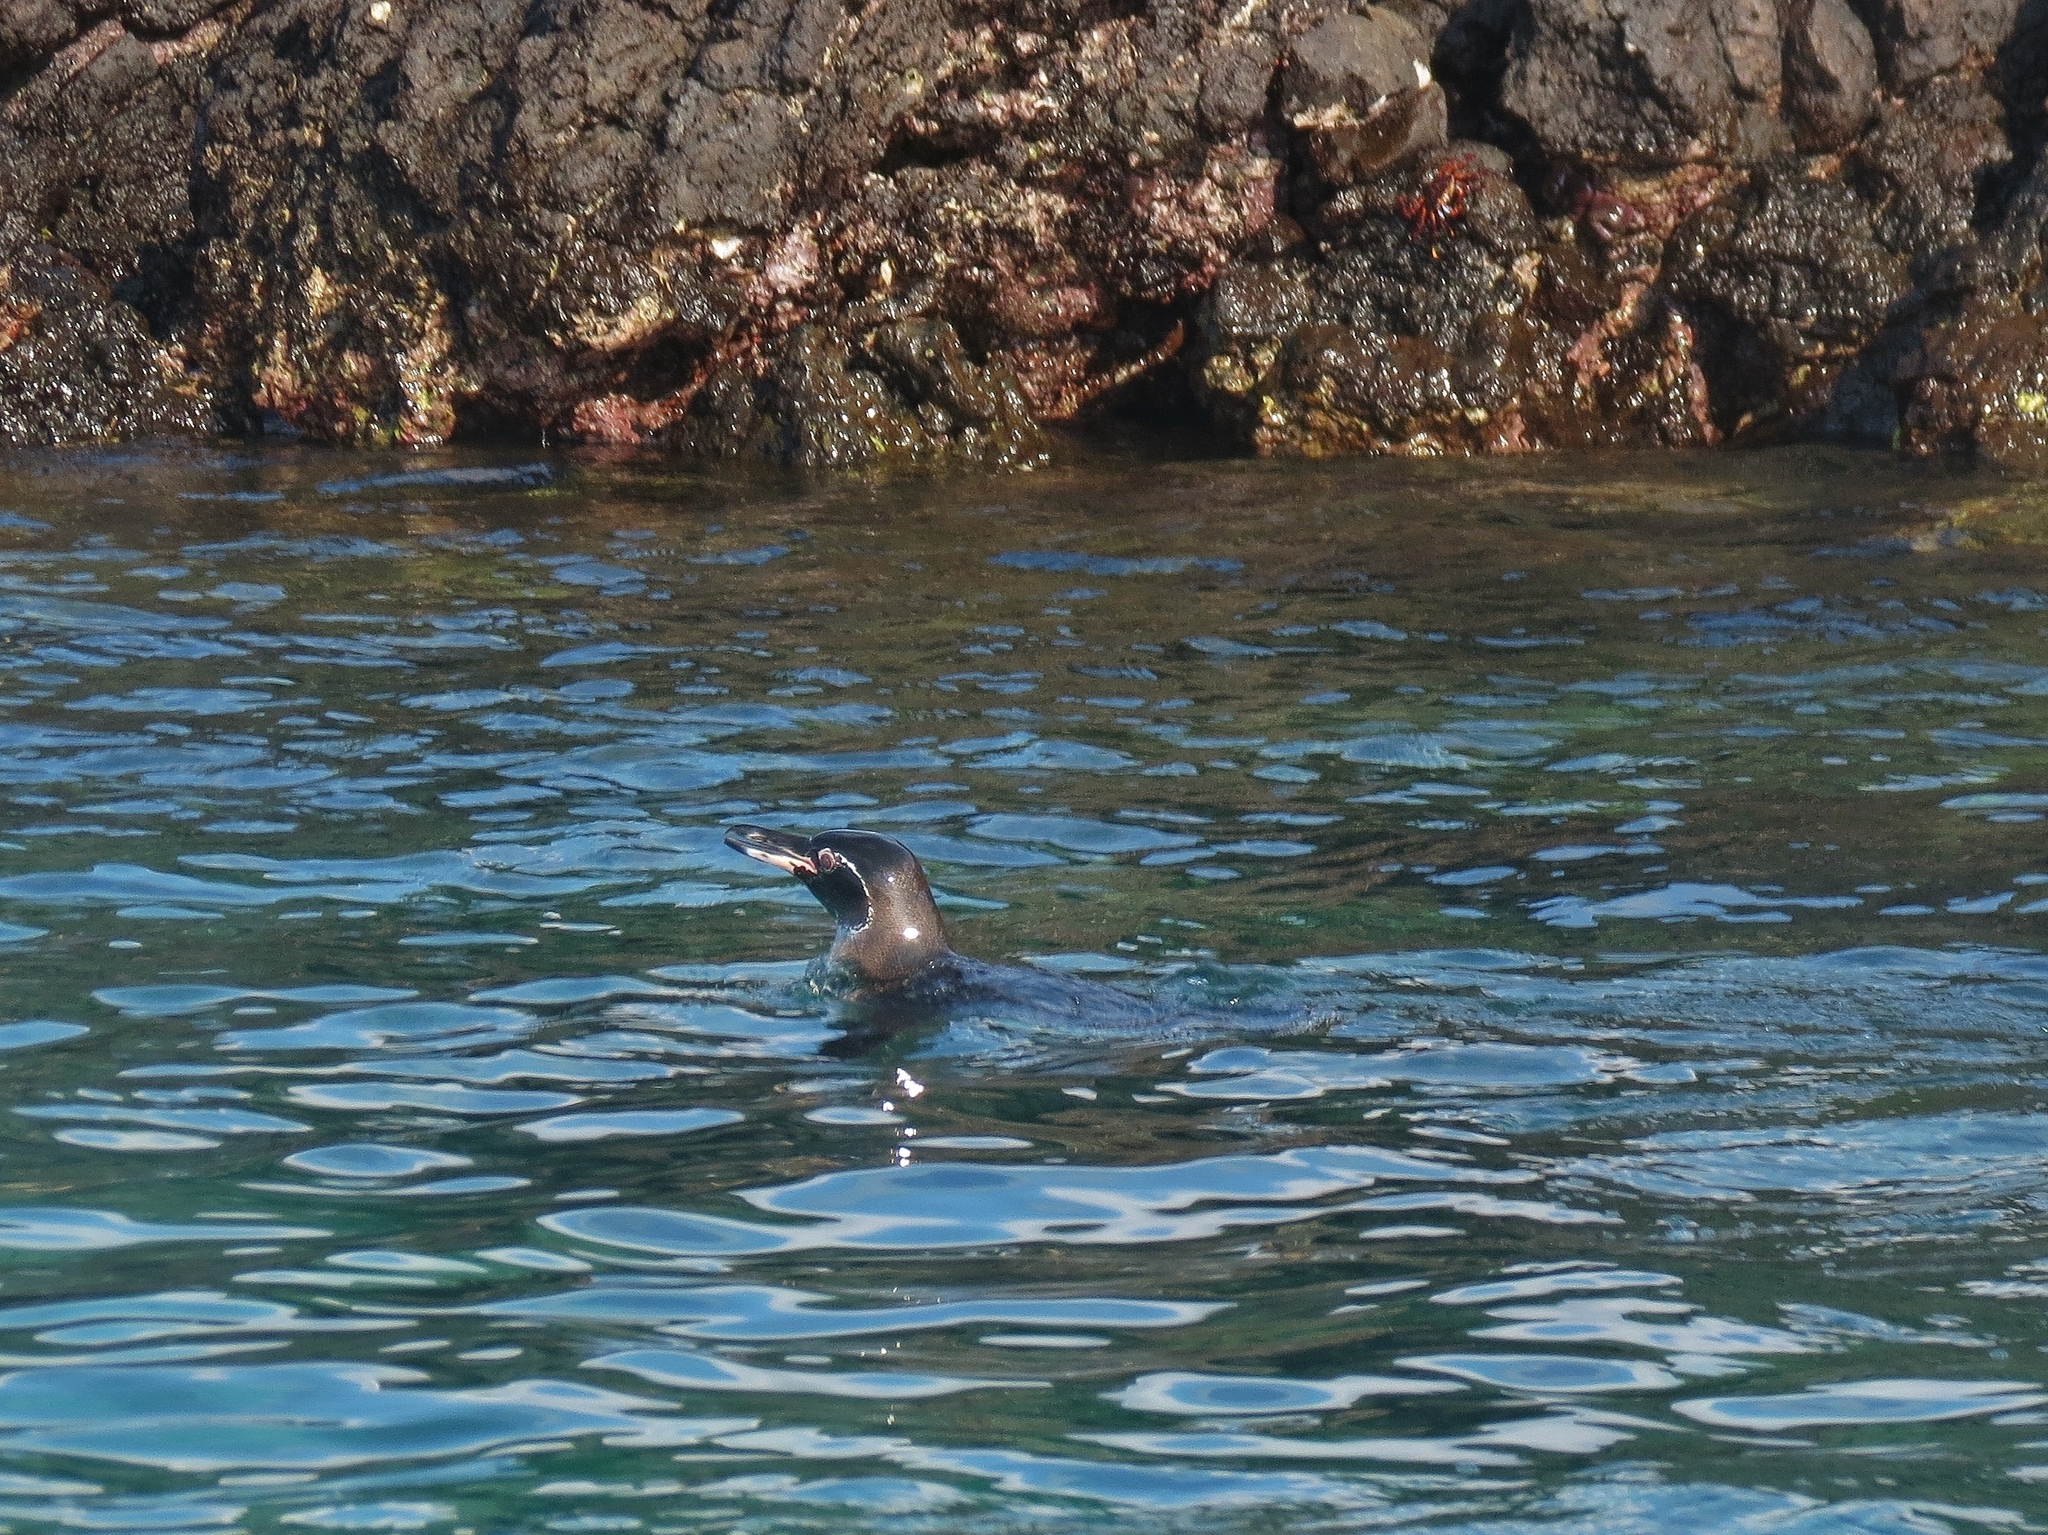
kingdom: Animalia
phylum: Chordata
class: Aves
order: Sphenisciformes
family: Spheniscidae
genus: Spheniscus
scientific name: Spheniscus mendiculus
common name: Galapagos penguin
